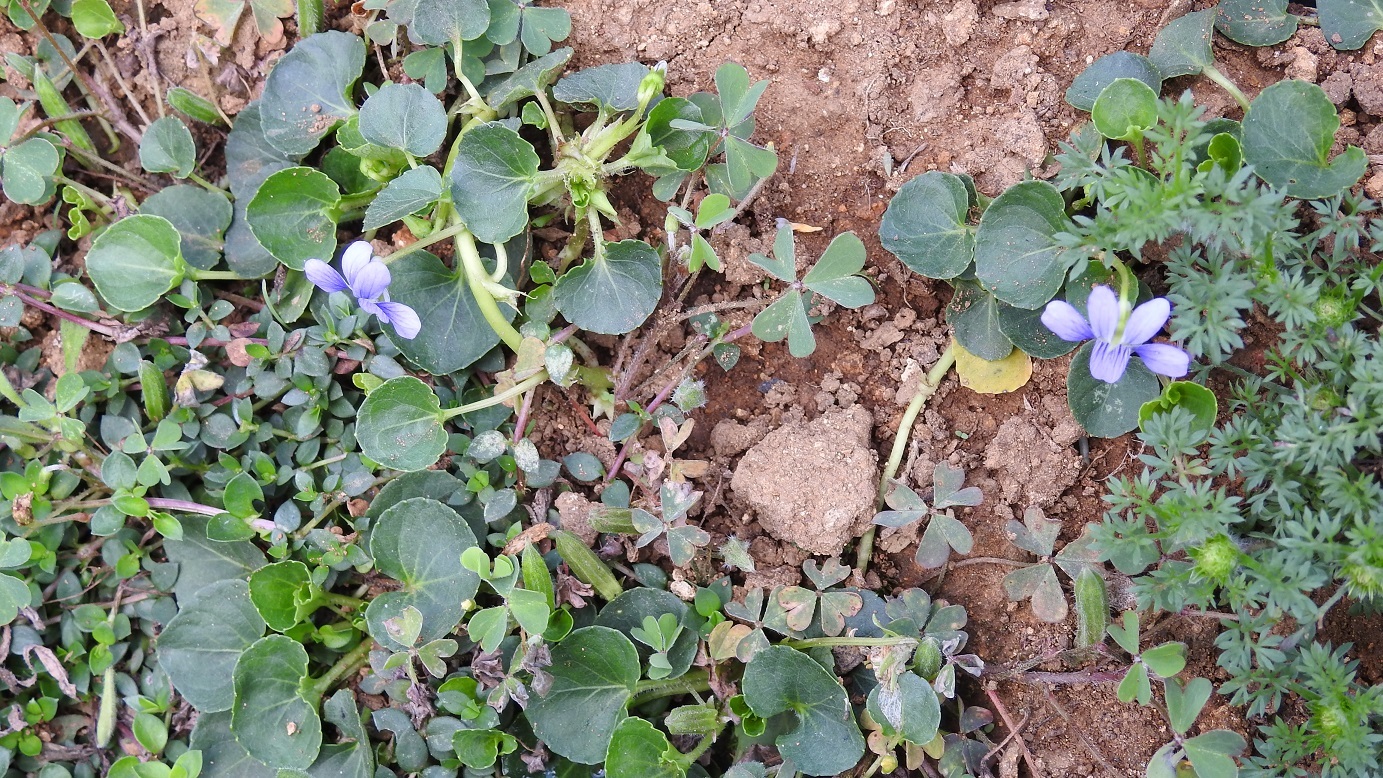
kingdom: Plantae
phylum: Tracheophyta
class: Magnoliopsida
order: Malpighiales
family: Violaceae
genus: Viola
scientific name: Viola nannei
